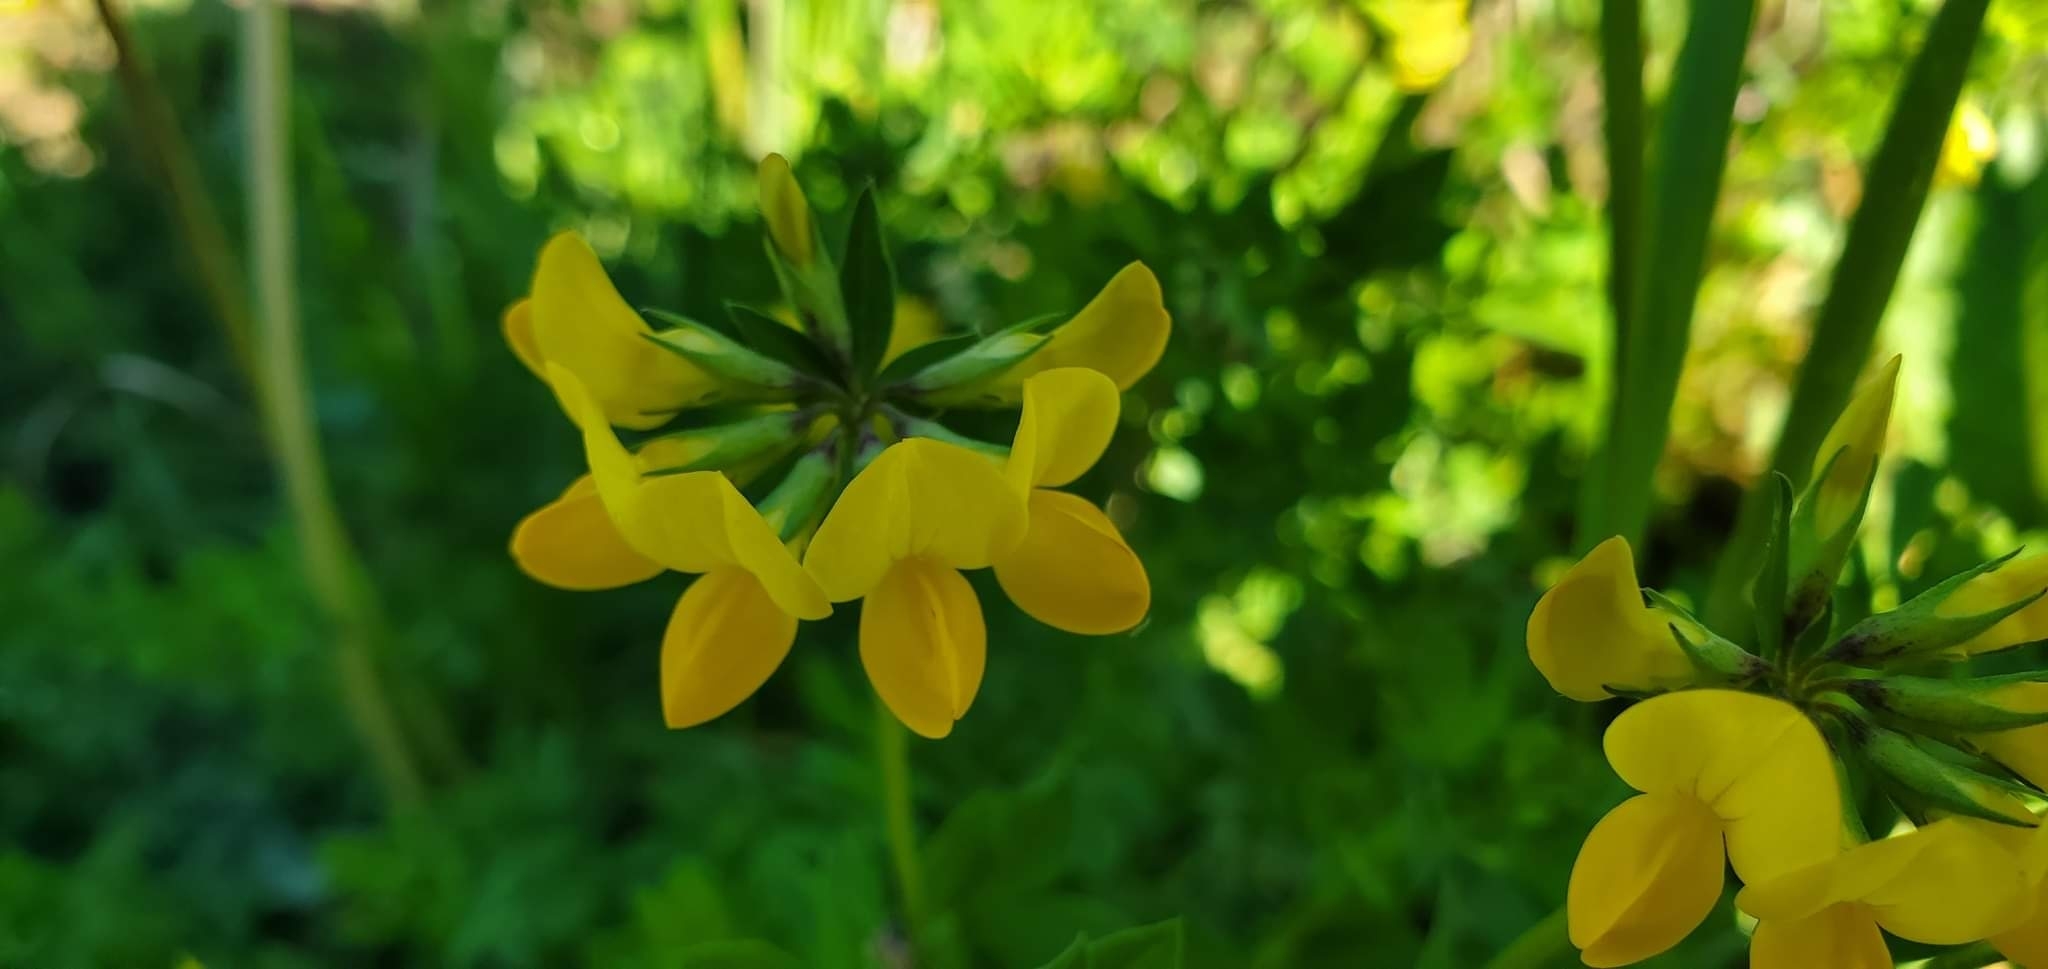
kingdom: Plantae
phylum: Tracheophyta
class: Magnoliopsida
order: Fabales
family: Fabaceae
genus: Lotus
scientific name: Lotus corniculatus
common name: Common bird's-foot-trefoil
